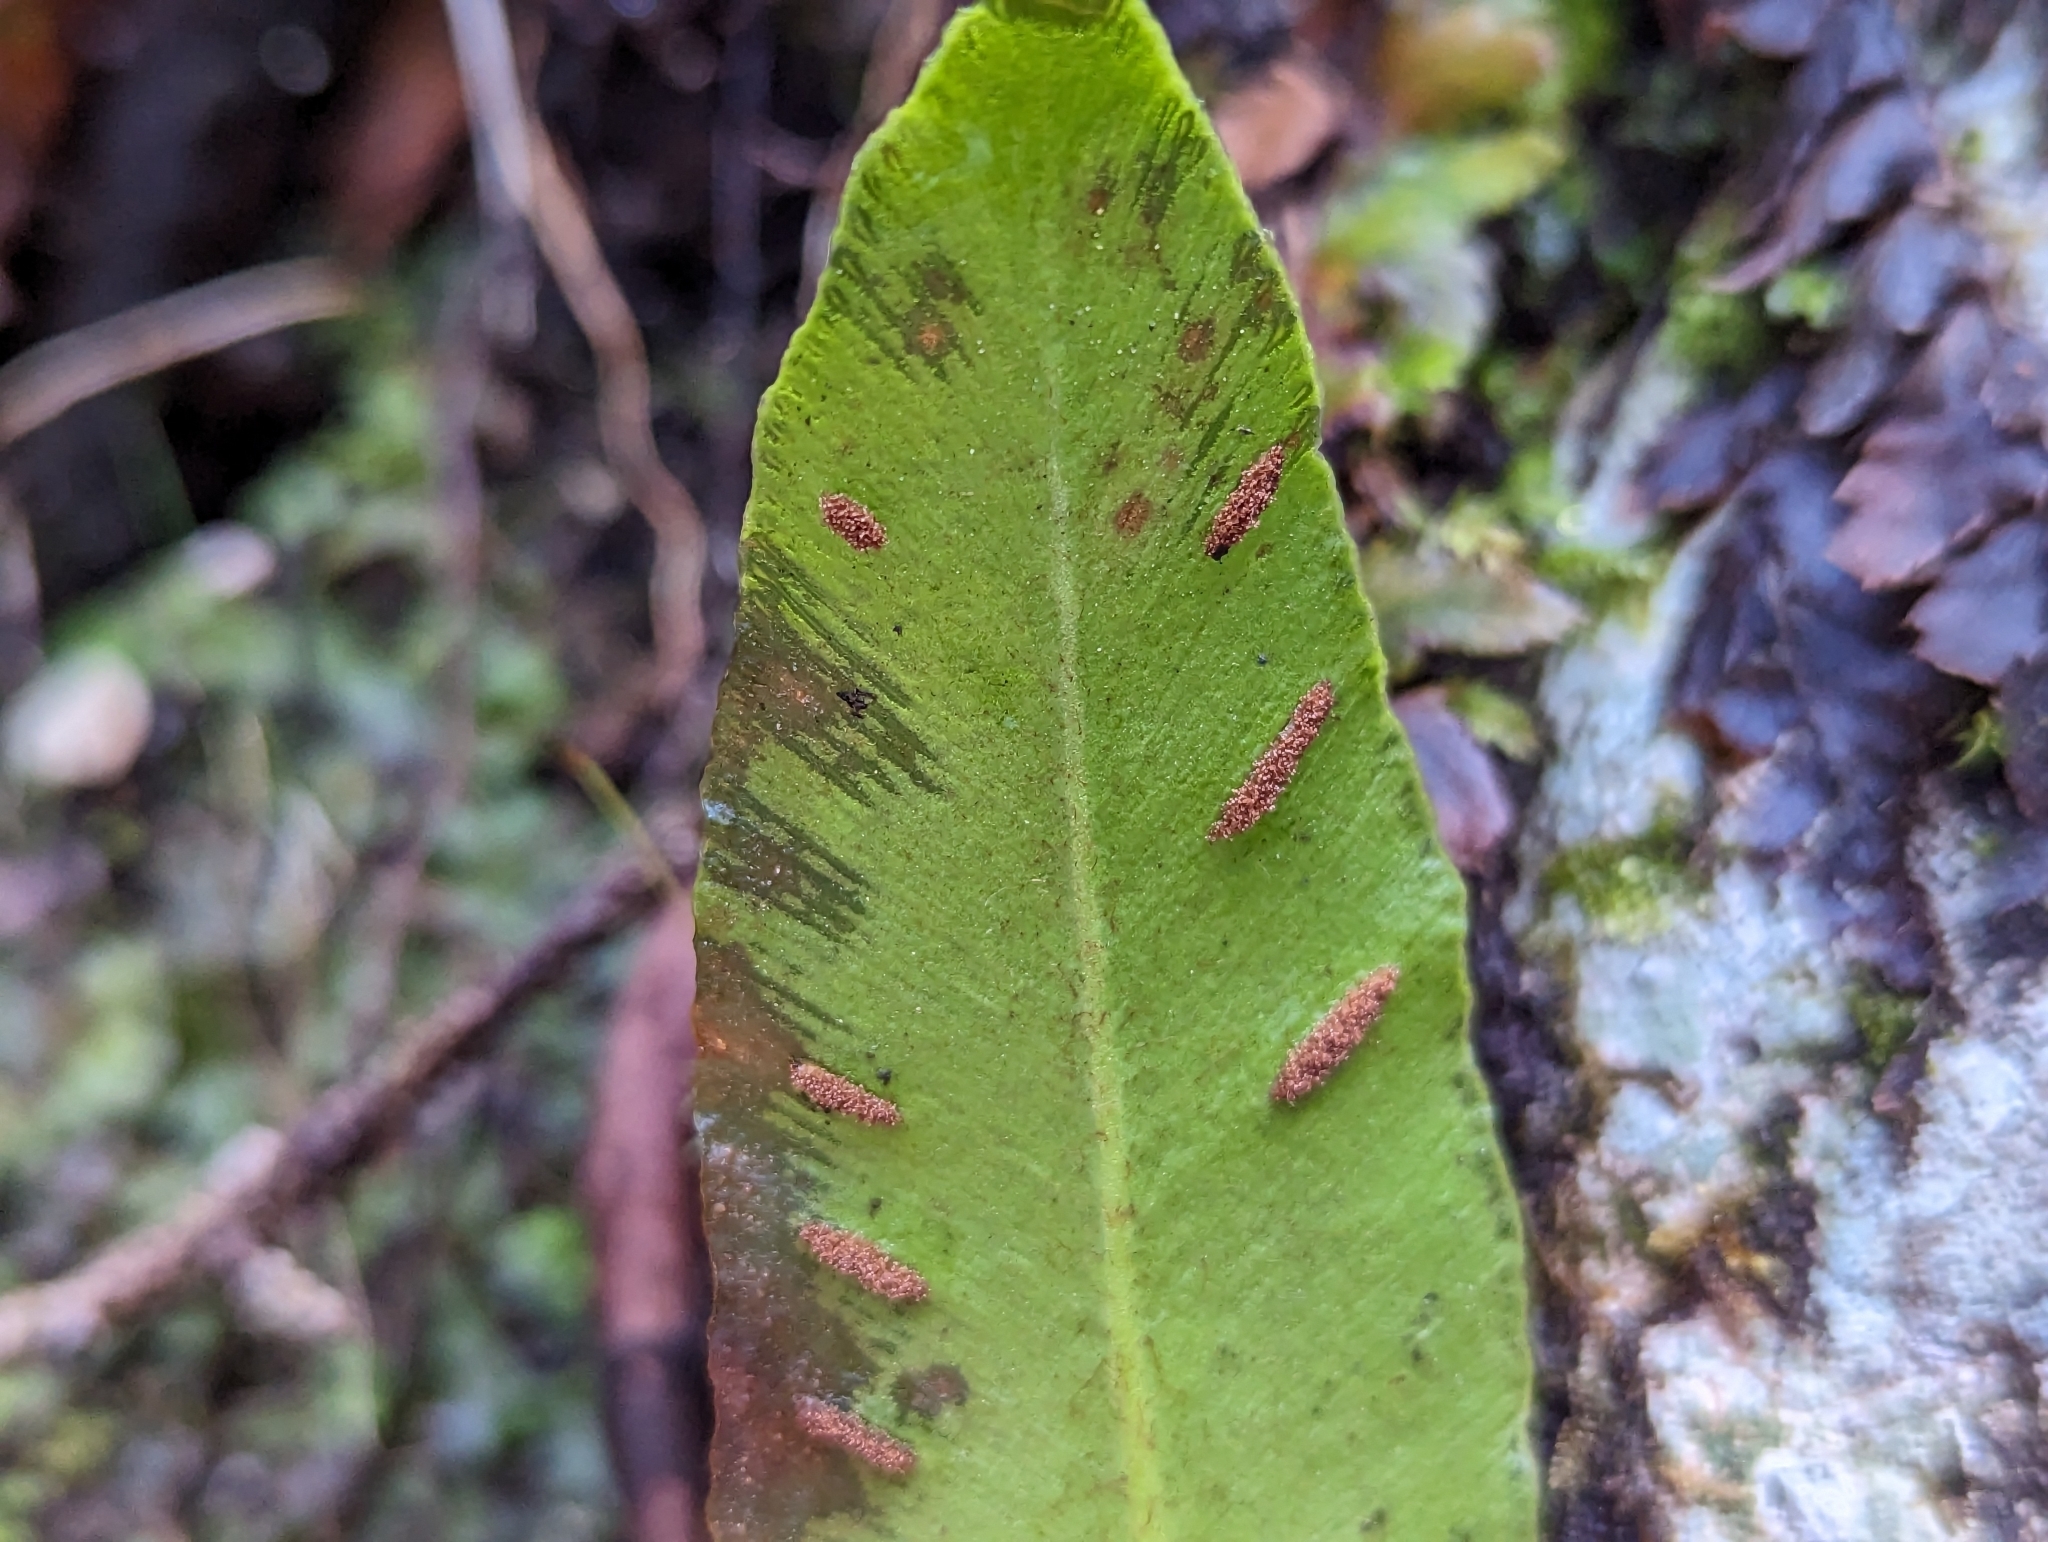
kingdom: Plantae
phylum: Tracheophyta
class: Polypodiopsida
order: Polypodiales
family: Aspleniaceae
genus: Asplenium
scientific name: Asplenium scolopendrium
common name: Hart's-tongue fern
